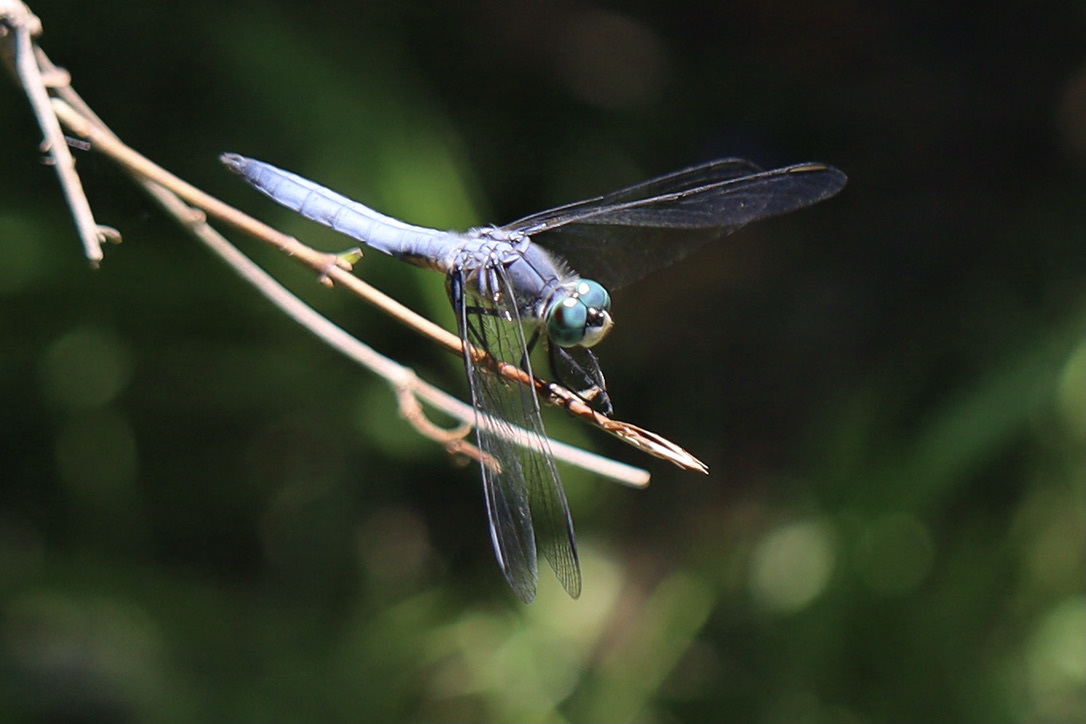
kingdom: Animalia
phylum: Arthropoda
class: Insecta
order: Odonata
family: Libellulidae
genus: Pachydiplax
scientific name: Pachydiplax longipennis
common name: Blue dasher
